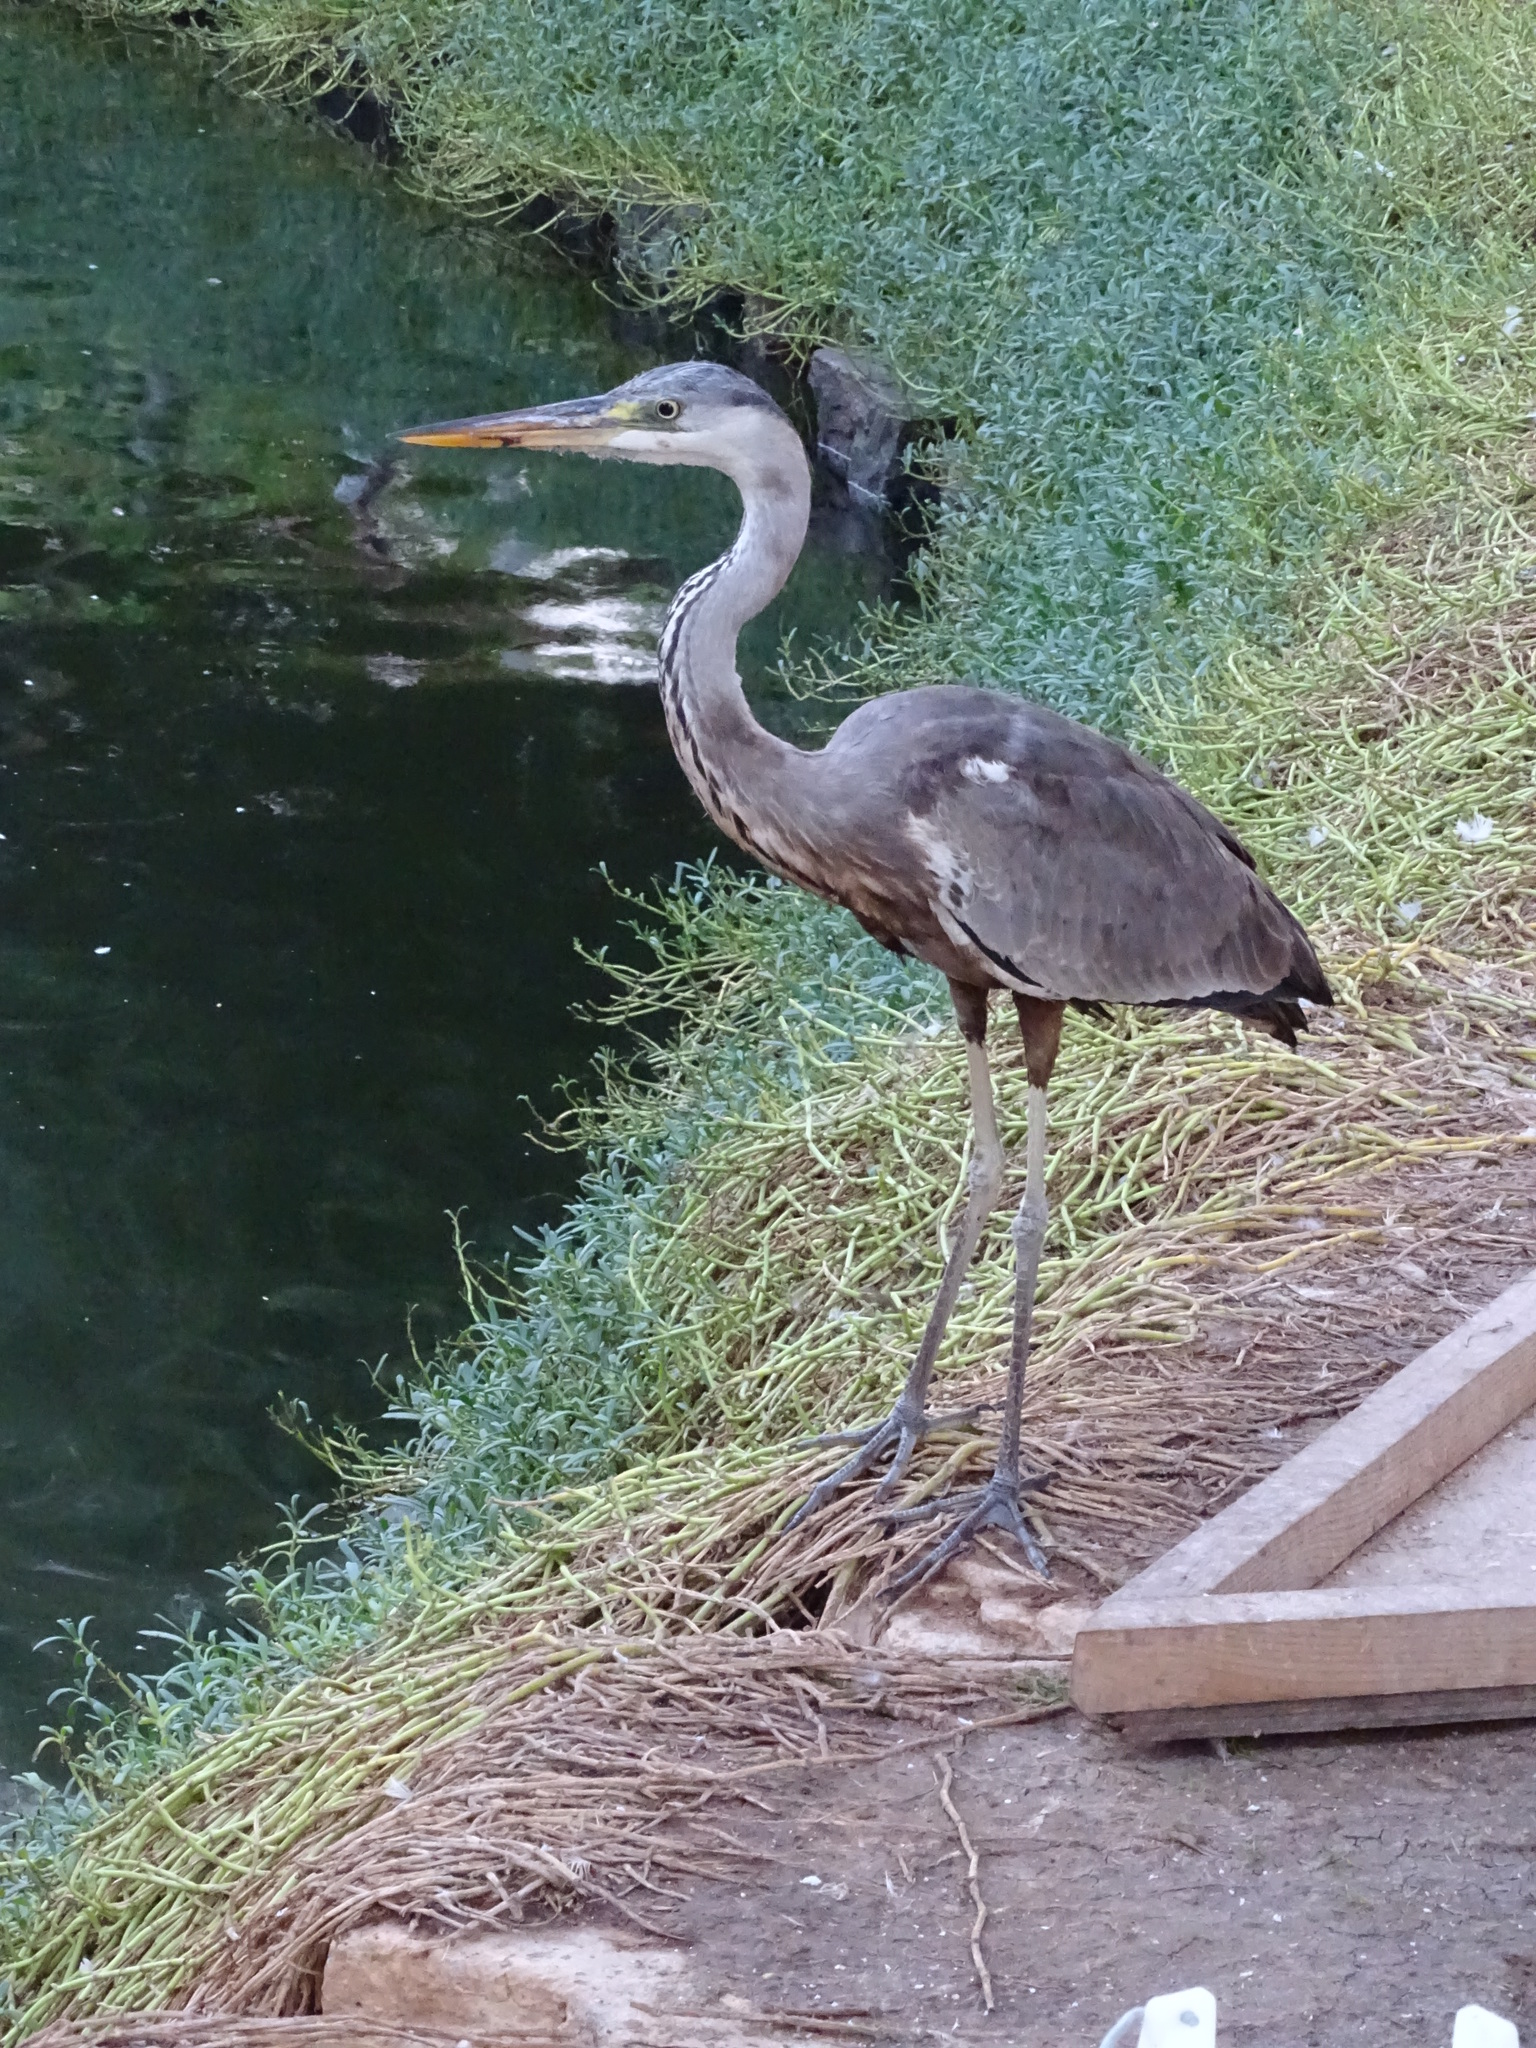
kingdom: Animalia
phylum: Chordata
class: Aves
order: Pelecaniformes
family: Ardeidae
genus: Ardea
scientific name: Ardea cinerea
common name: Grey heron
